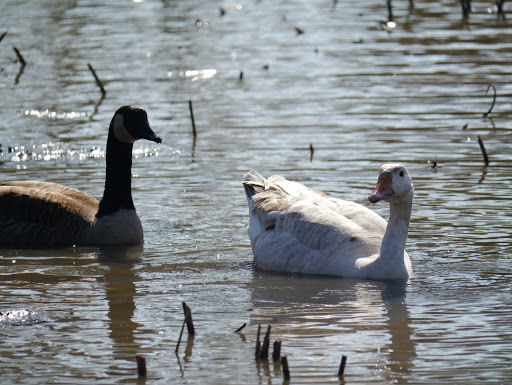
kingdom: Animalia
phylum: Chordata
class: Aves
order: Anseriformes
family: Anatidae
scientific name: Anatidae
